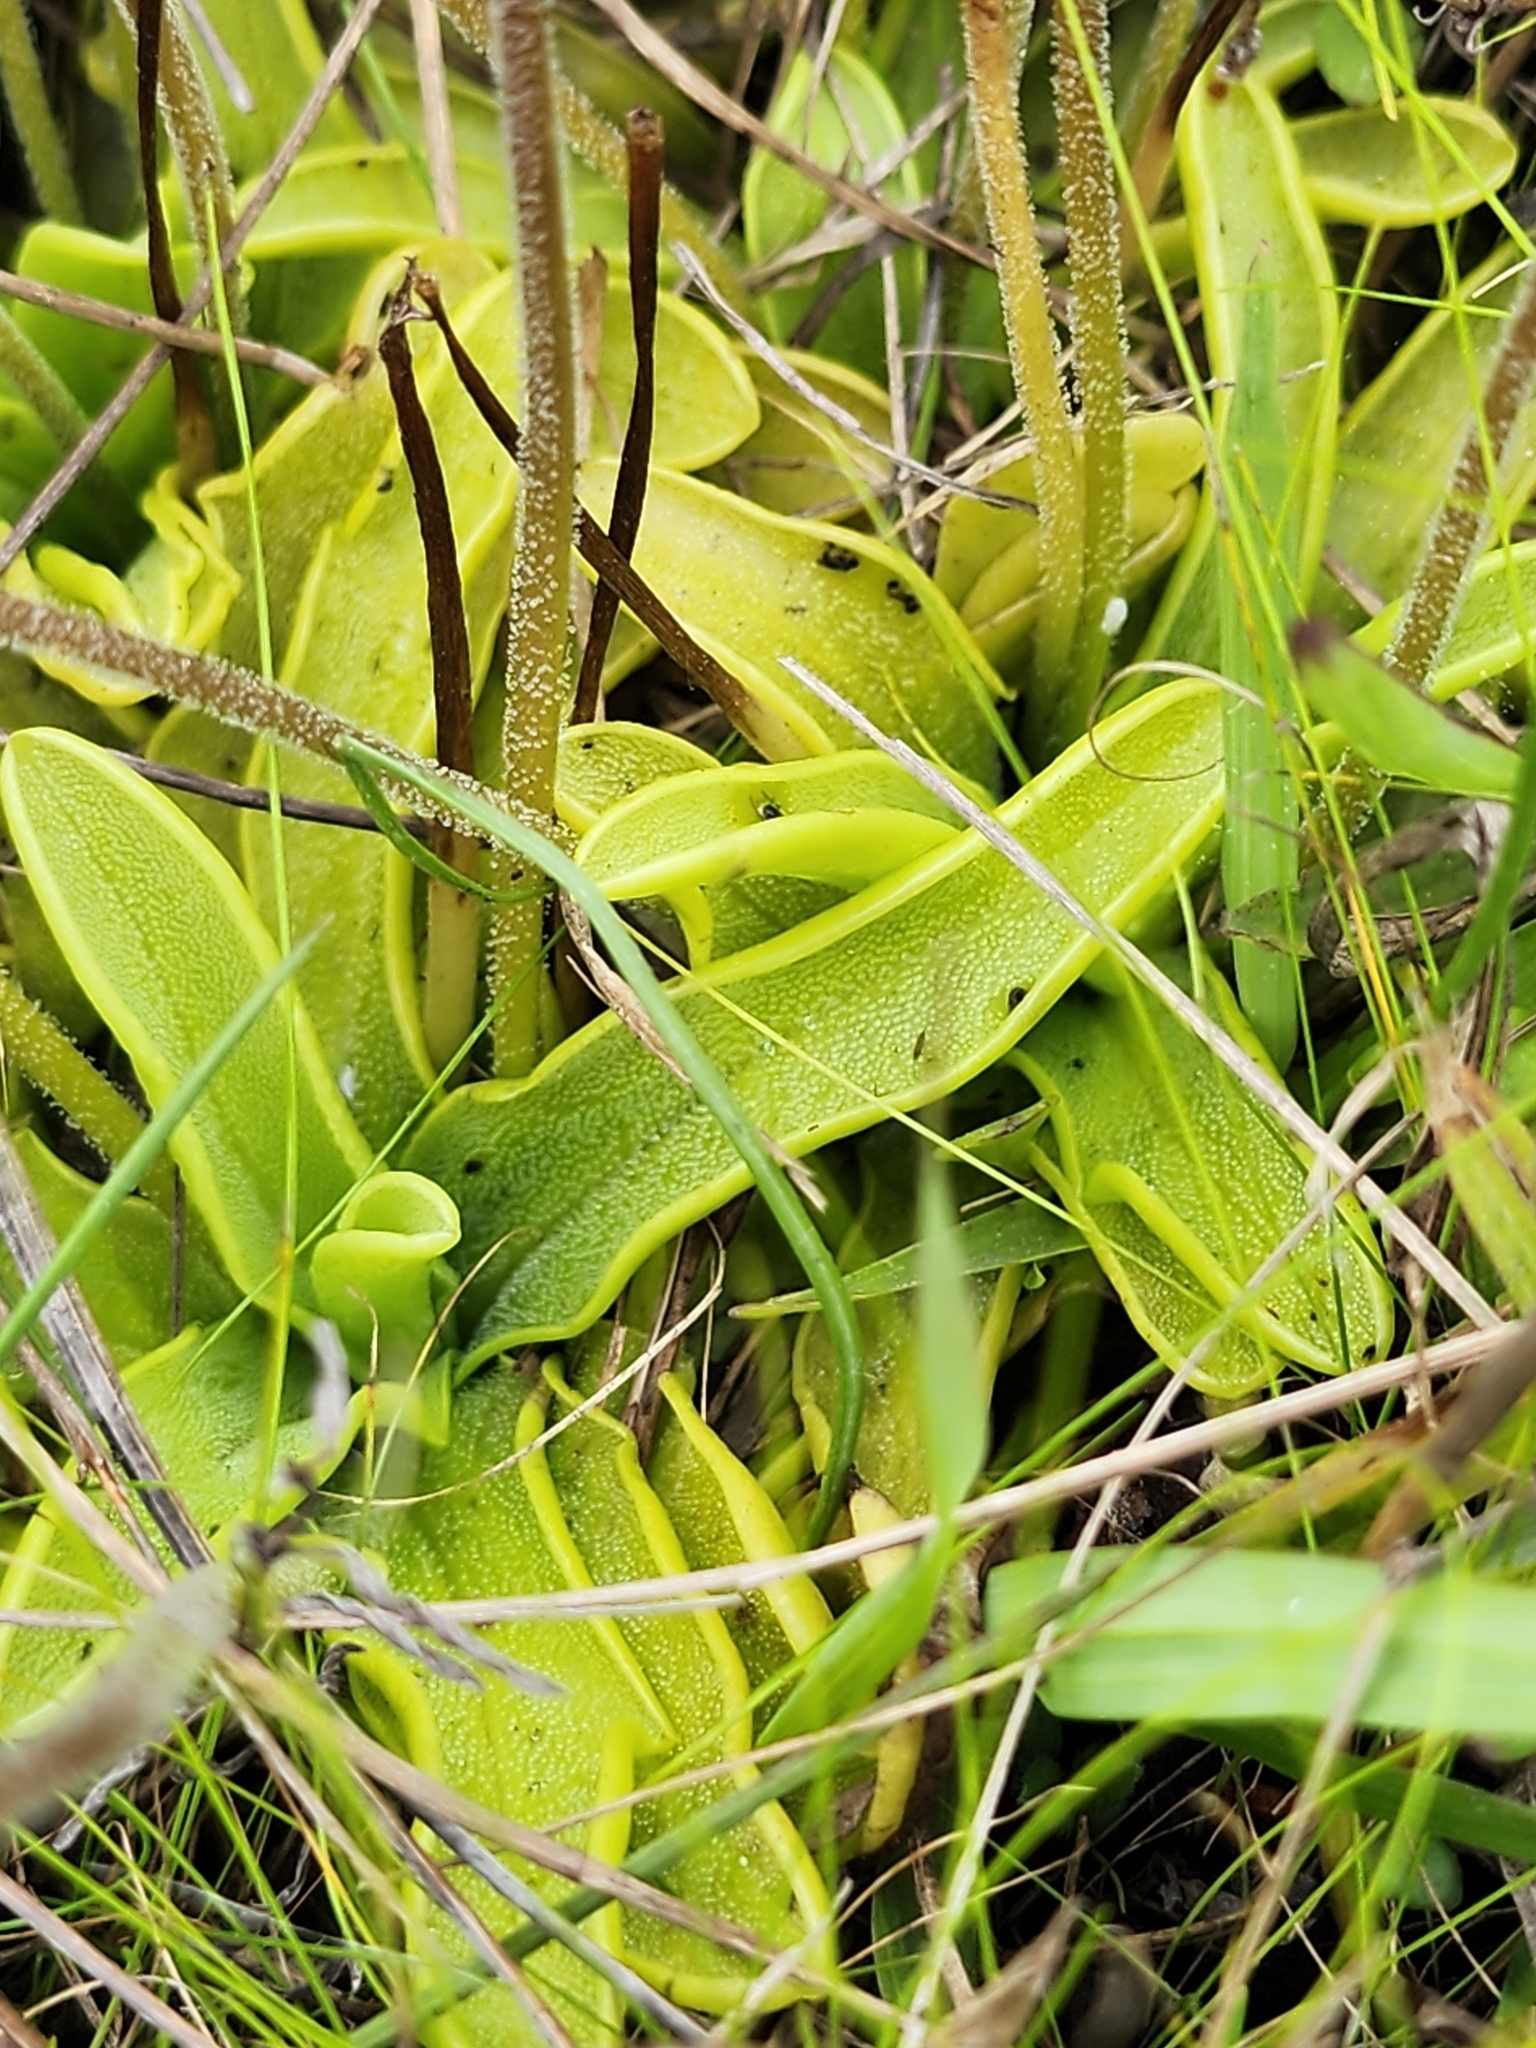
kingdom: Plantae
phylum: Tracheophyta
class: Magnoliopsida
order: Lamiales
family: Lentibulariaceae
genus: Pinguicula
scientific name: Pinguicula ionantha
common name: Godfrey's butterwort
